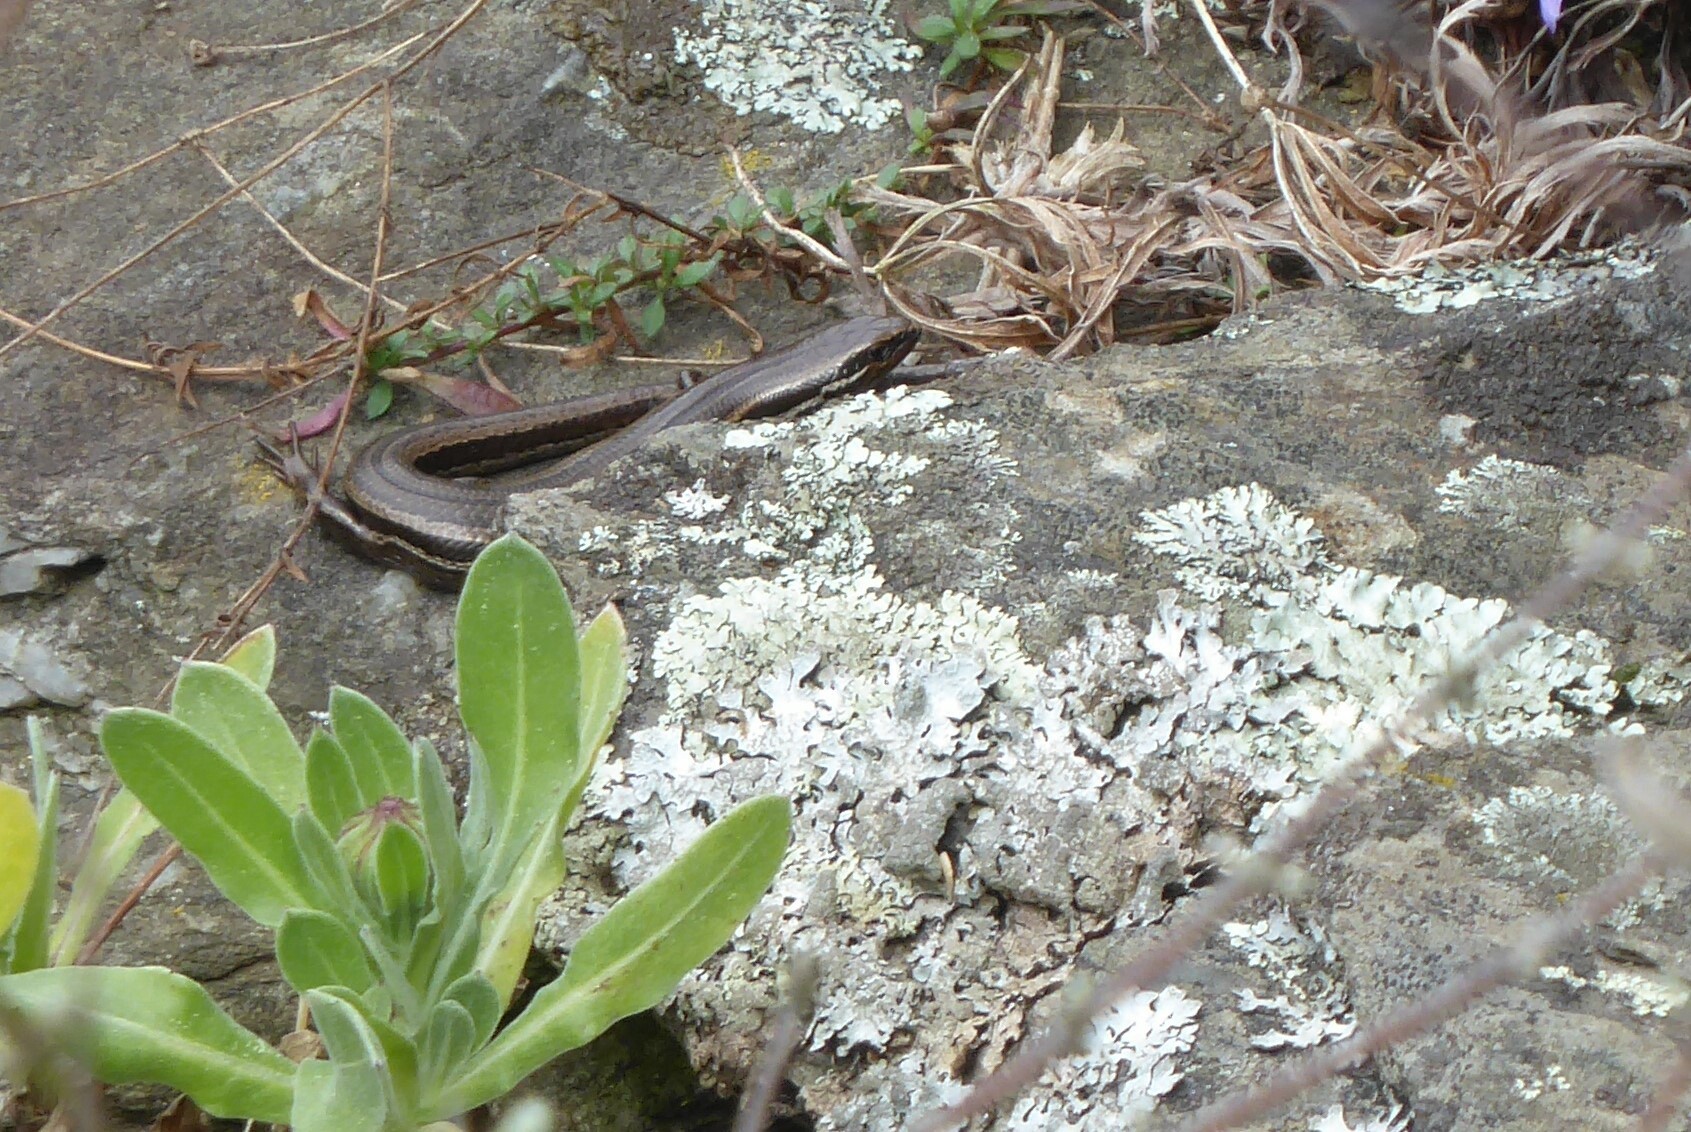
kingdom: Animalia
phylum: Chordata
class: Squamata
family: Scincidae
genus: Oligosoma
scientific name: Oligosoma polychroma
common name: Common new zealand skink
